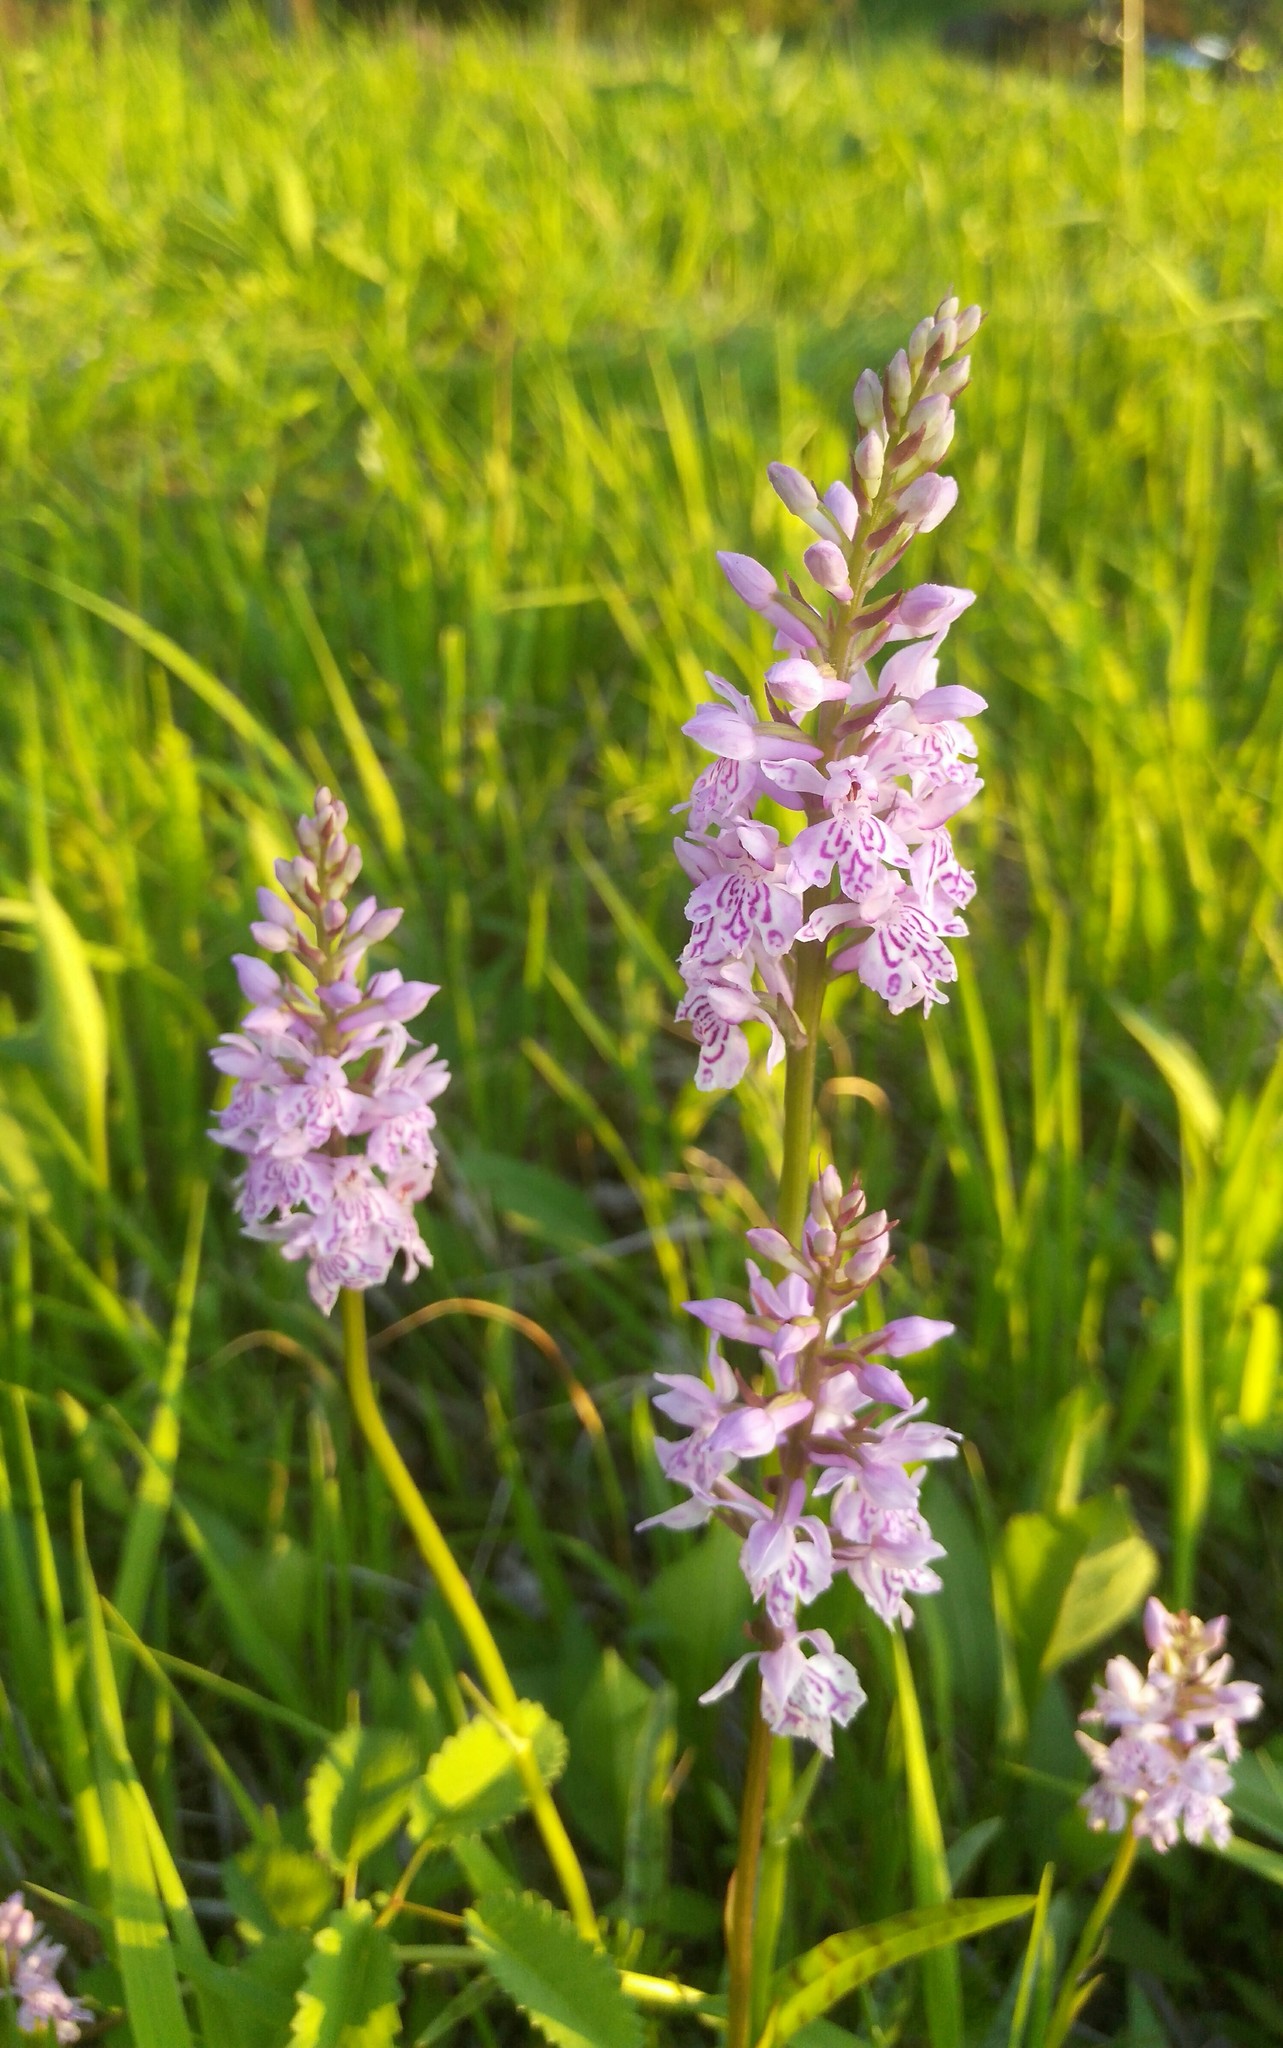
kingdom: Plantae
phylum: Tracheophyta
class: Liliopsida
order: Asparagales
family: Orchidaceae
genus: Dactylorhiza
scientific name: Dactylorhiza maculata
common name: Heath spotted-orchid
